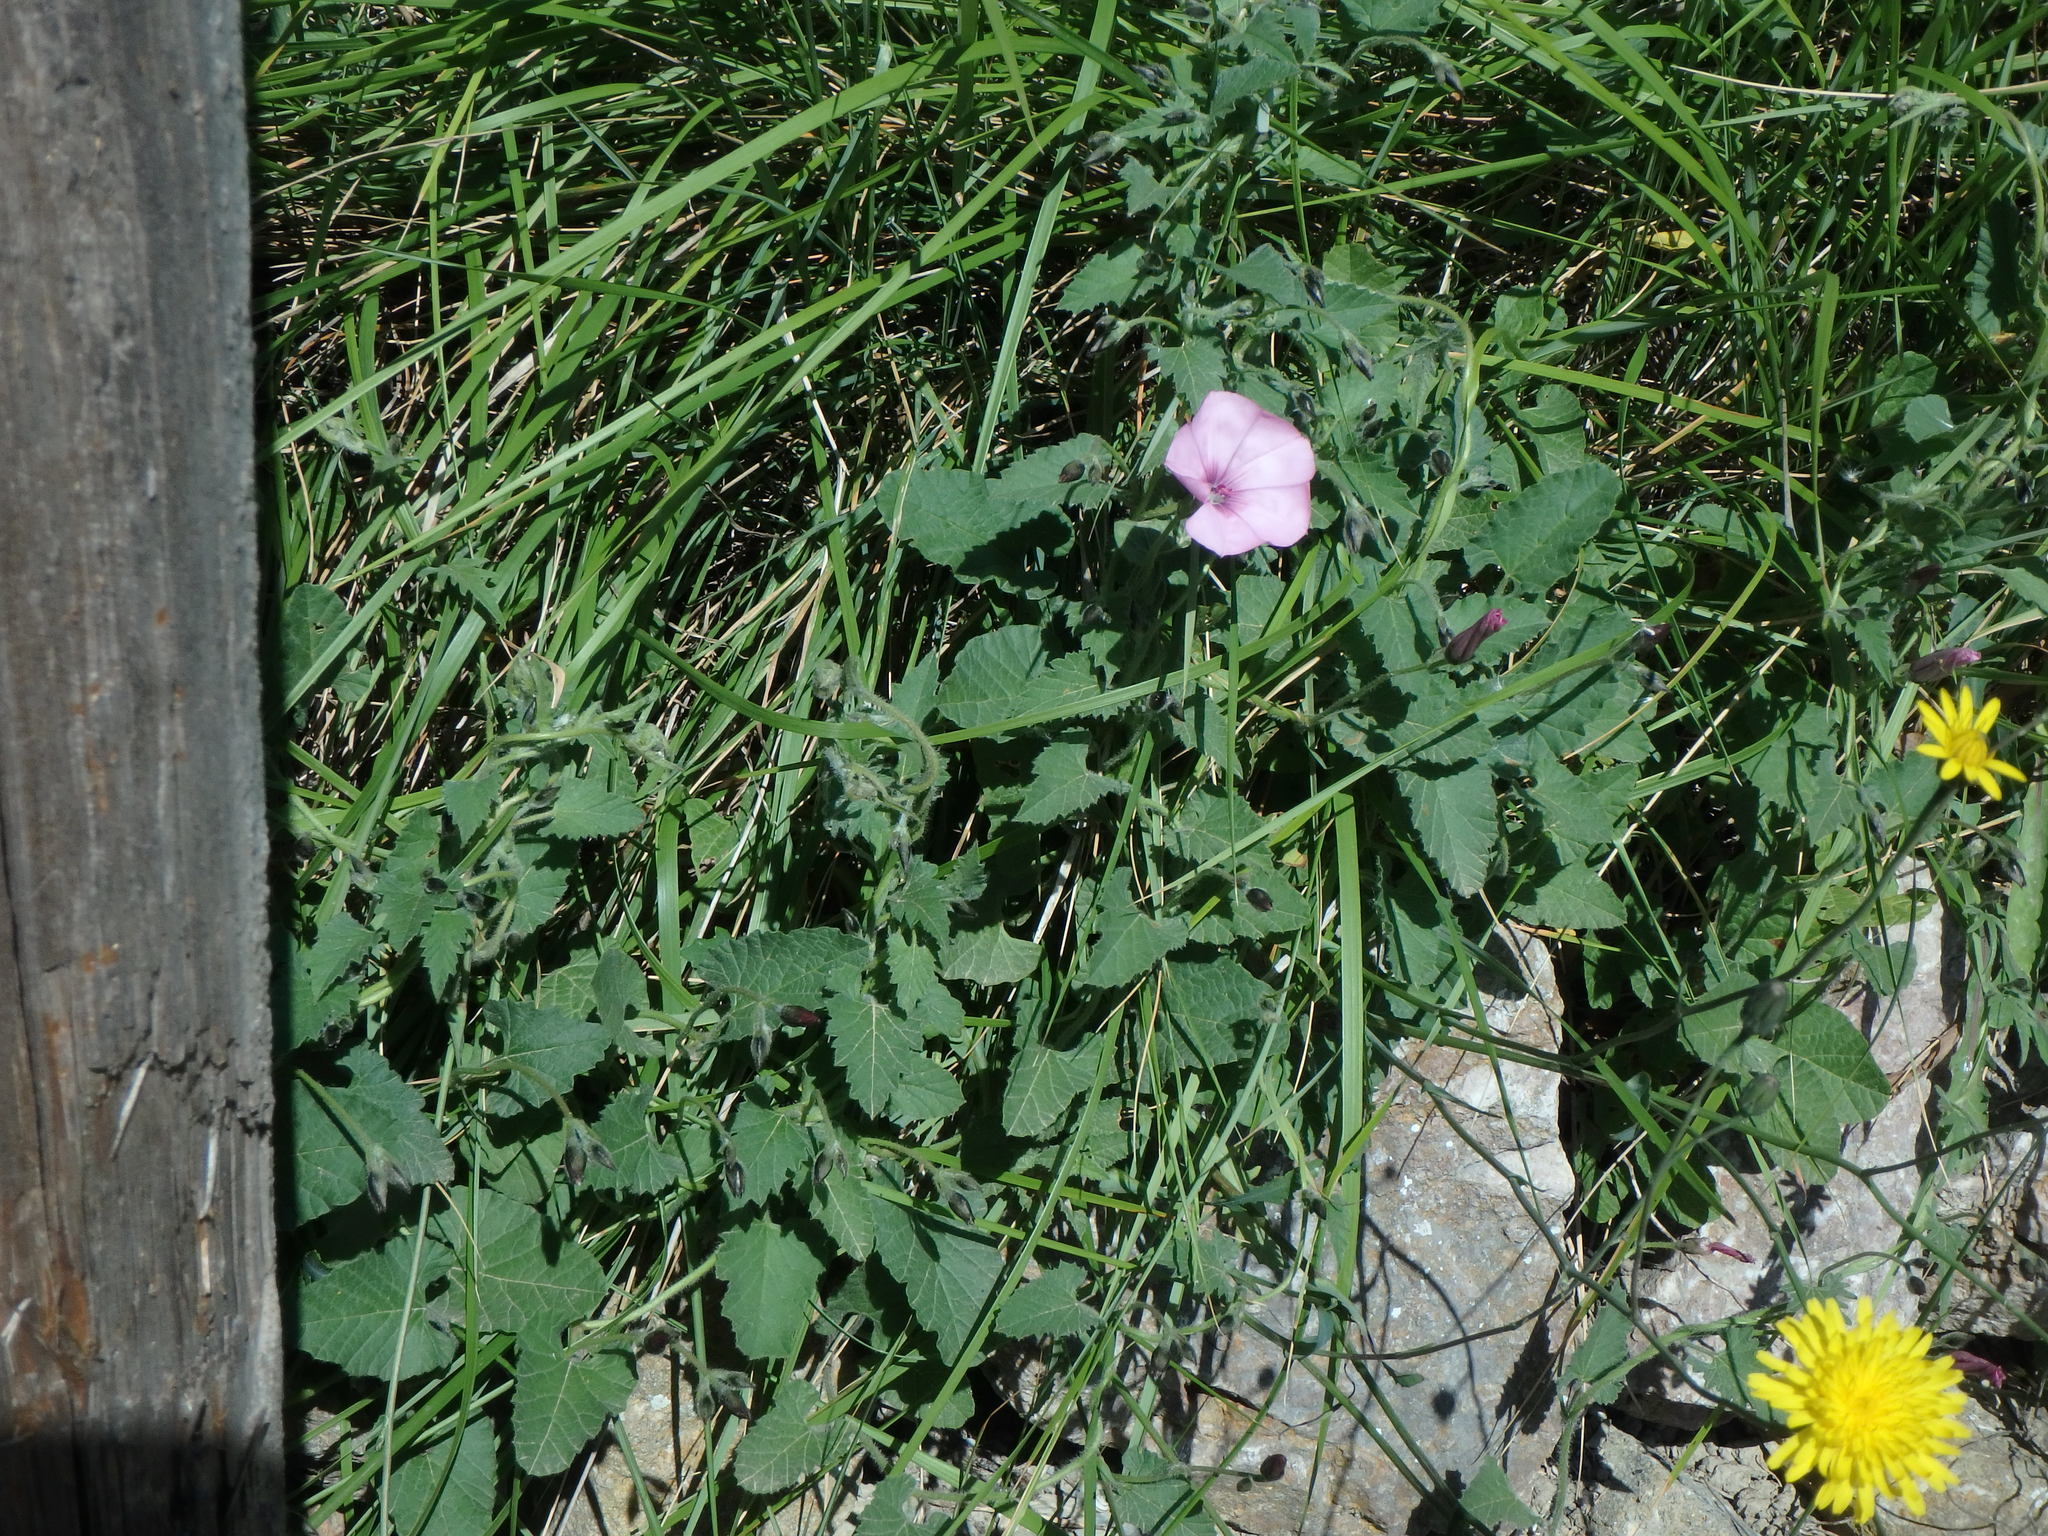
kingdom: Plantae
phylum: Tracheophyta
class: Magnoliopsida
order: Solanales
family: Convolvulaceae
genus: Convolvulus
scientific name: Convolvulus althaeoides
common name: Mallow bindweed
